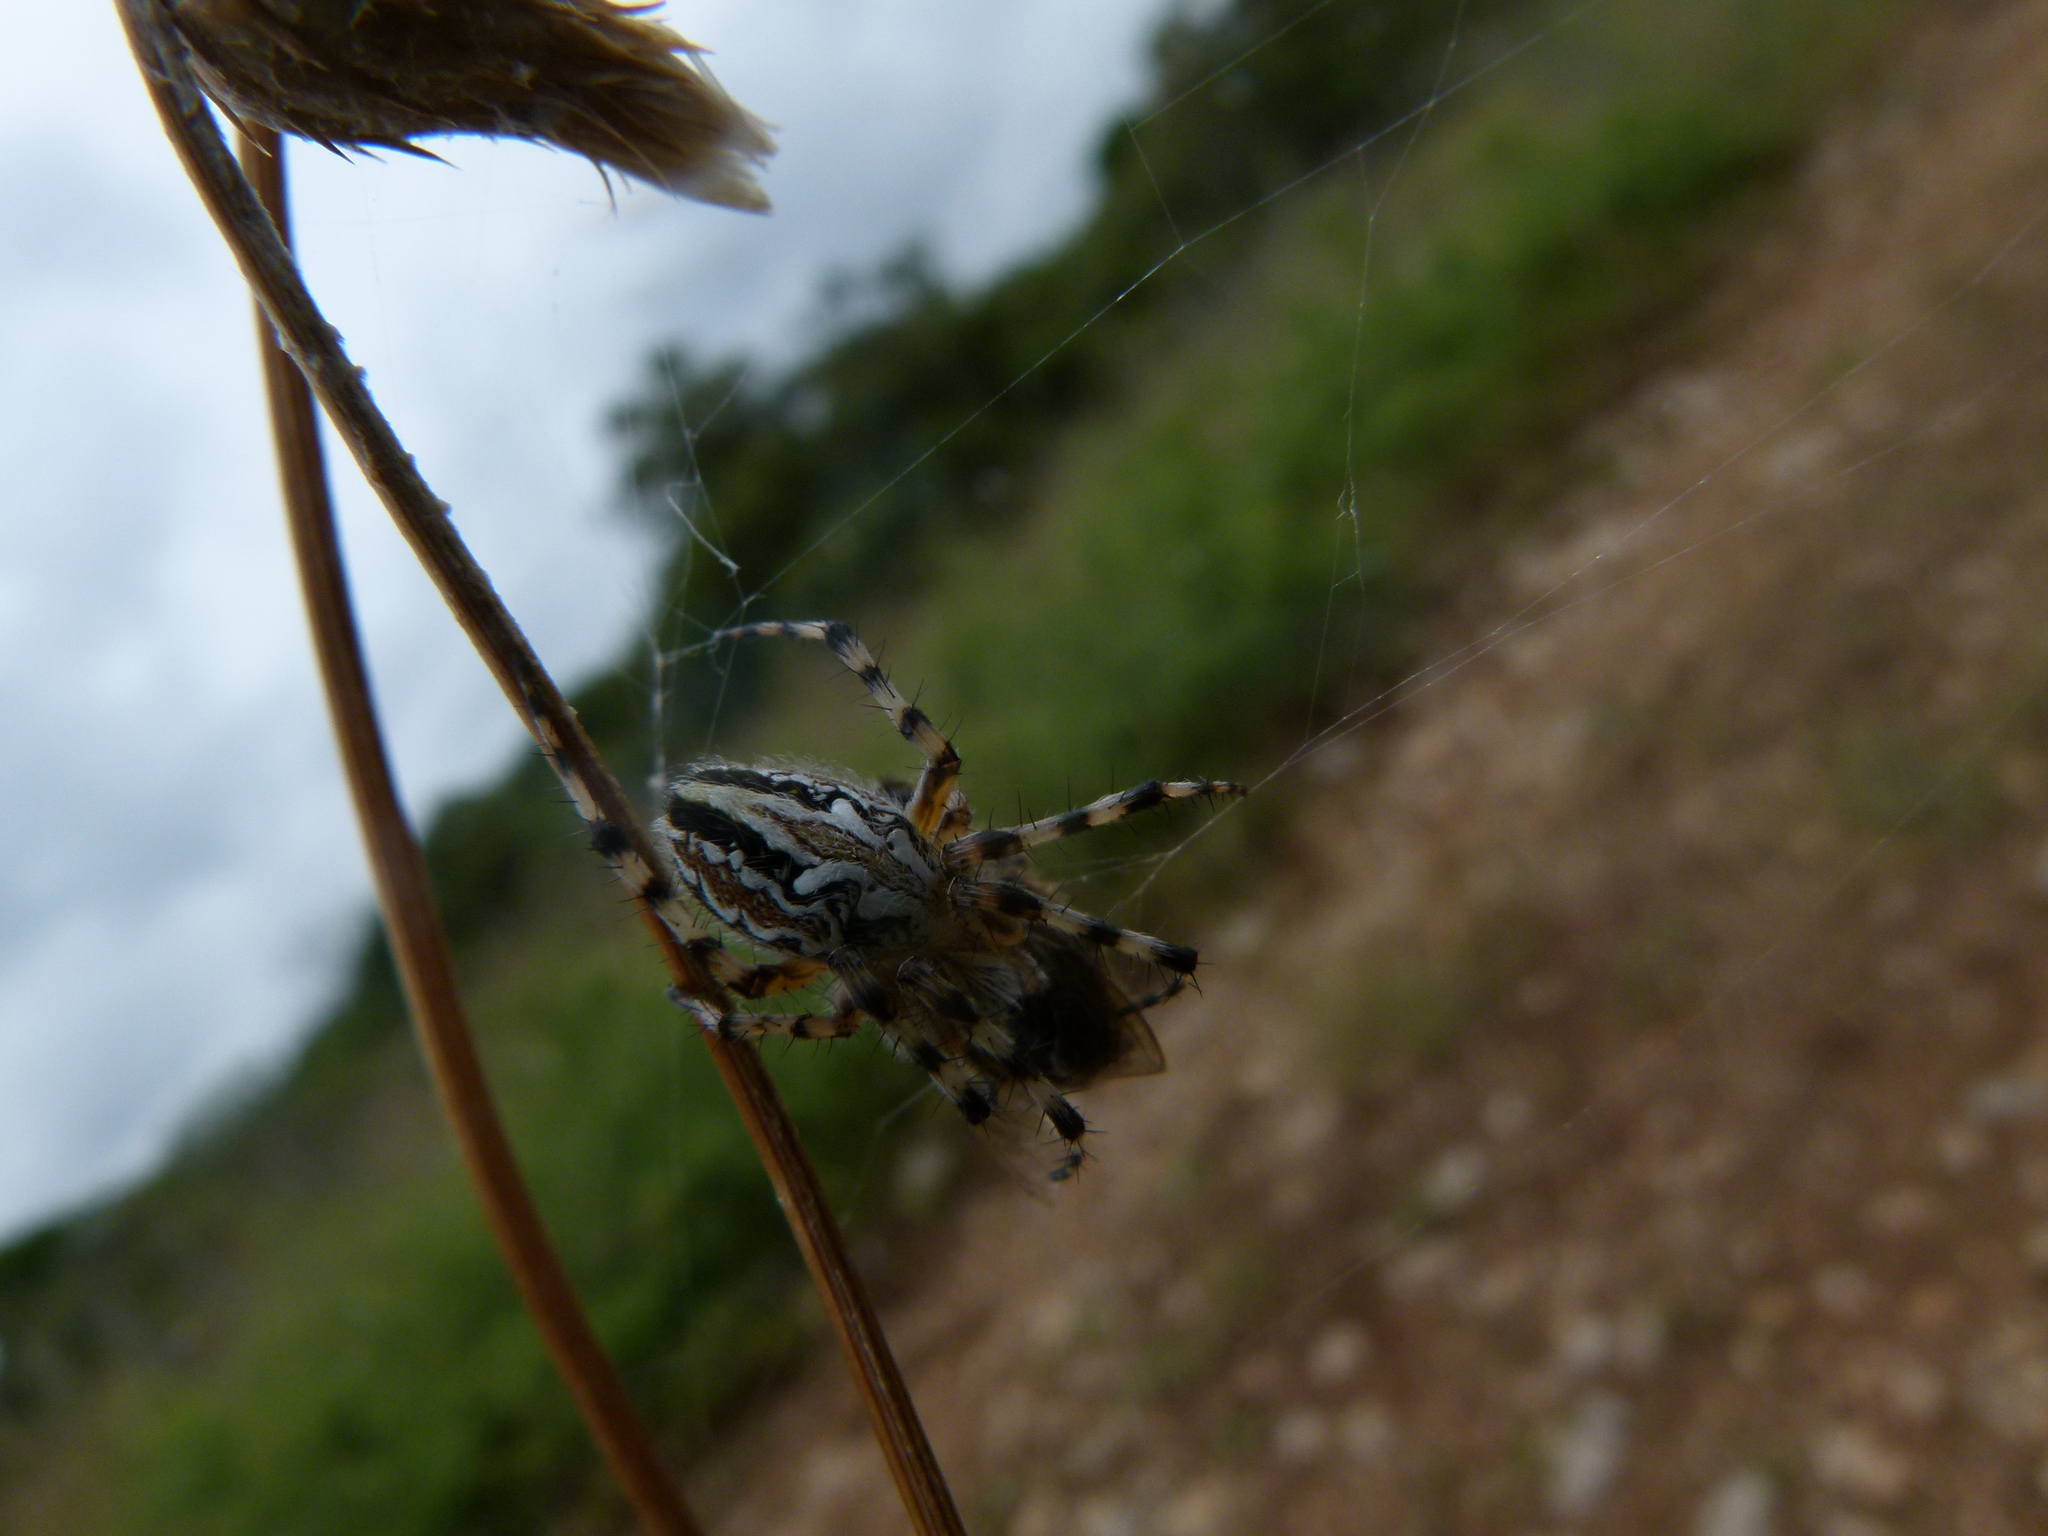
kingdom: Animalia
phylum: Arthropoda
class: Arachnida
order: Araneae
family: Araneidae
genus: Aculepeira
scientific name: Aculepeira armida
